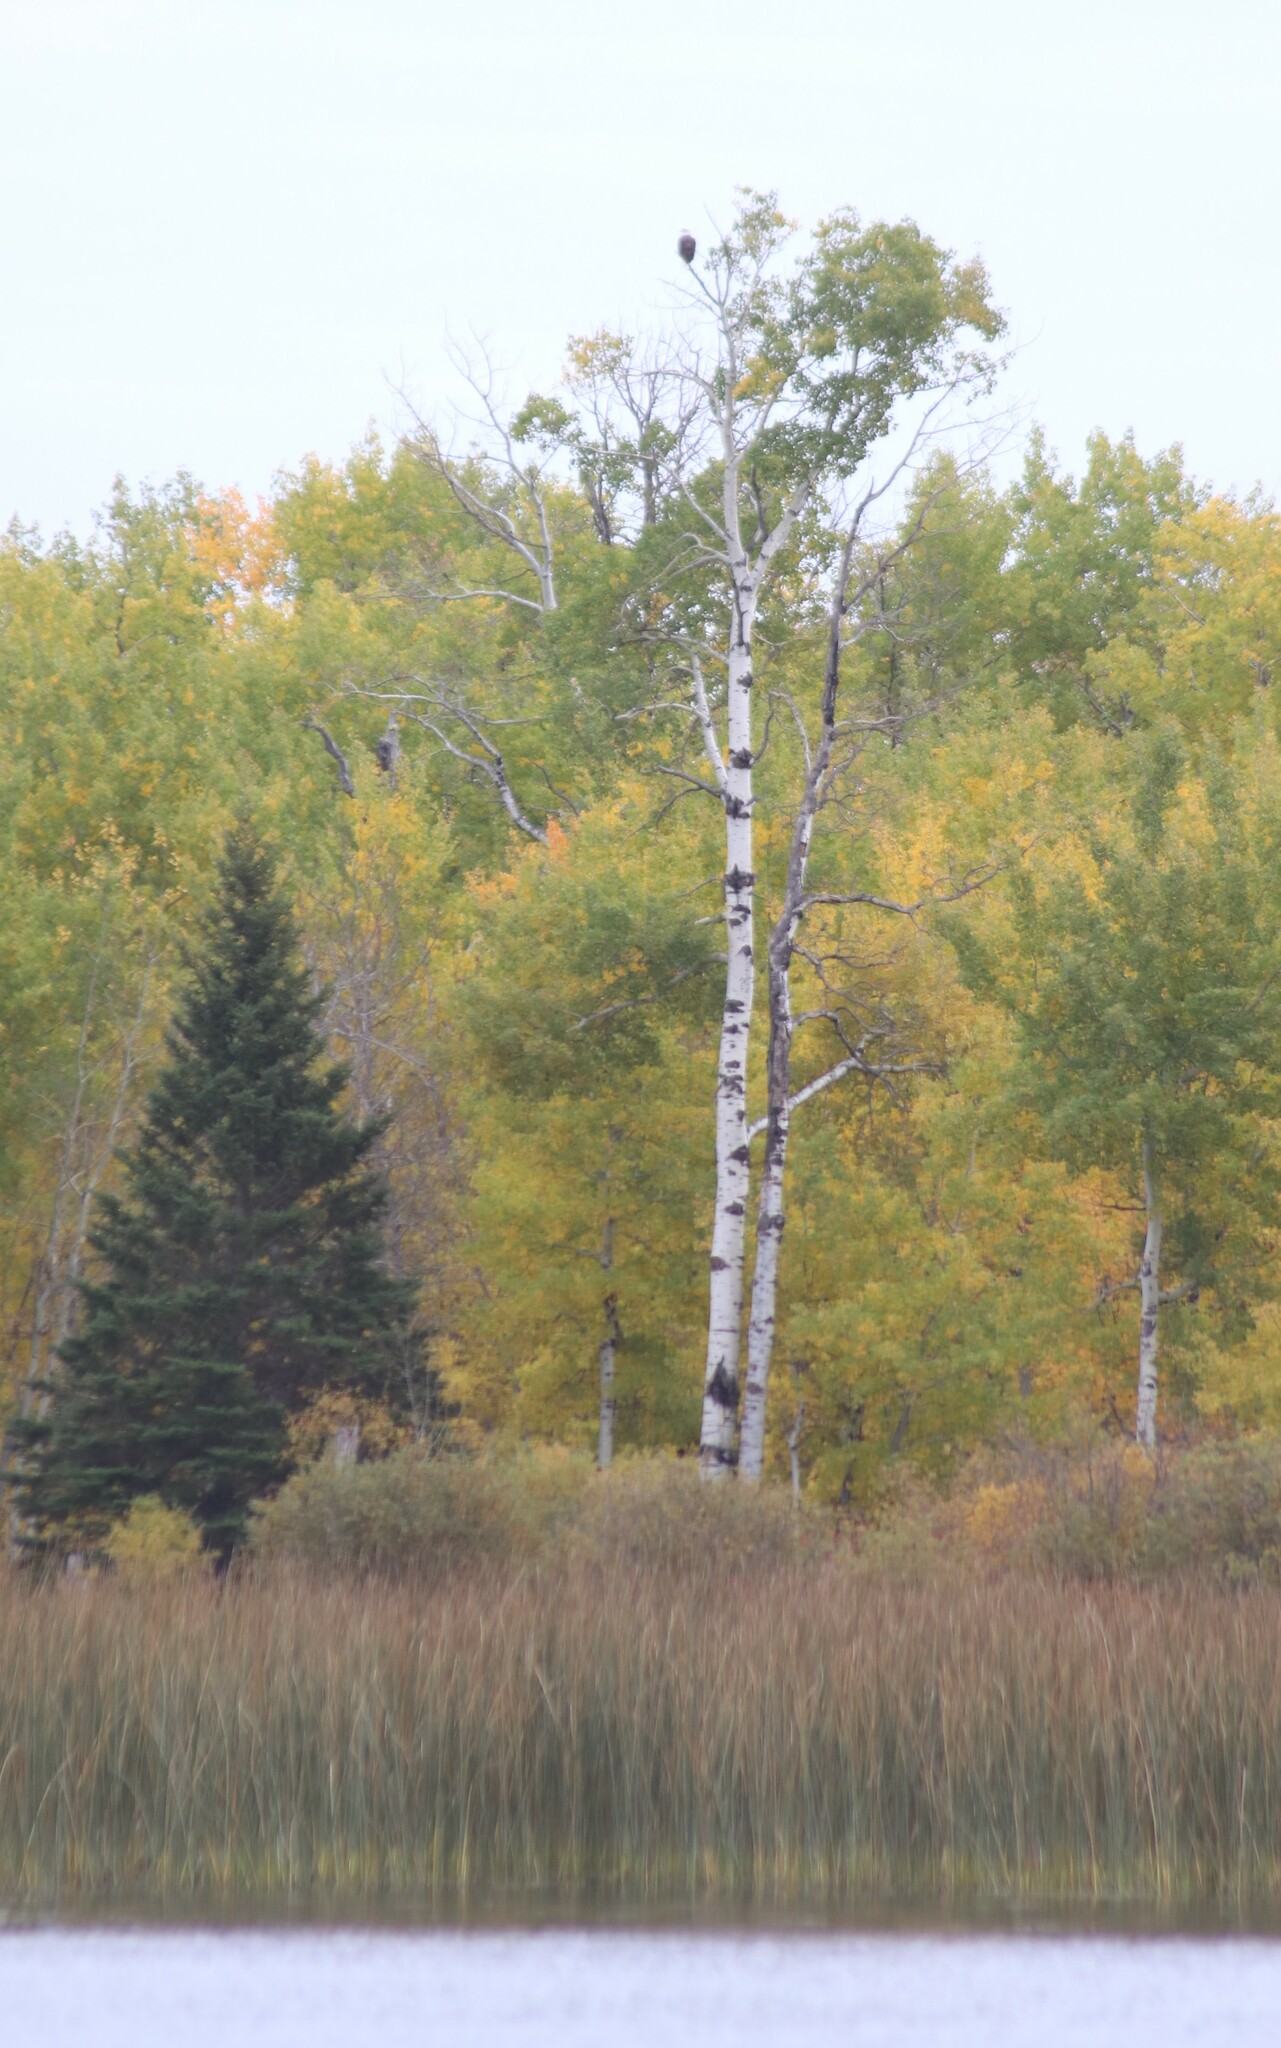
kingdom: Animalia
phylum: Chordata
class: Aves
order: Accipitriformes
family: Accipitridae
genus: Haliaeetus
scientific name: Haliaeetus leucocephalus
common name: Bald eagle
